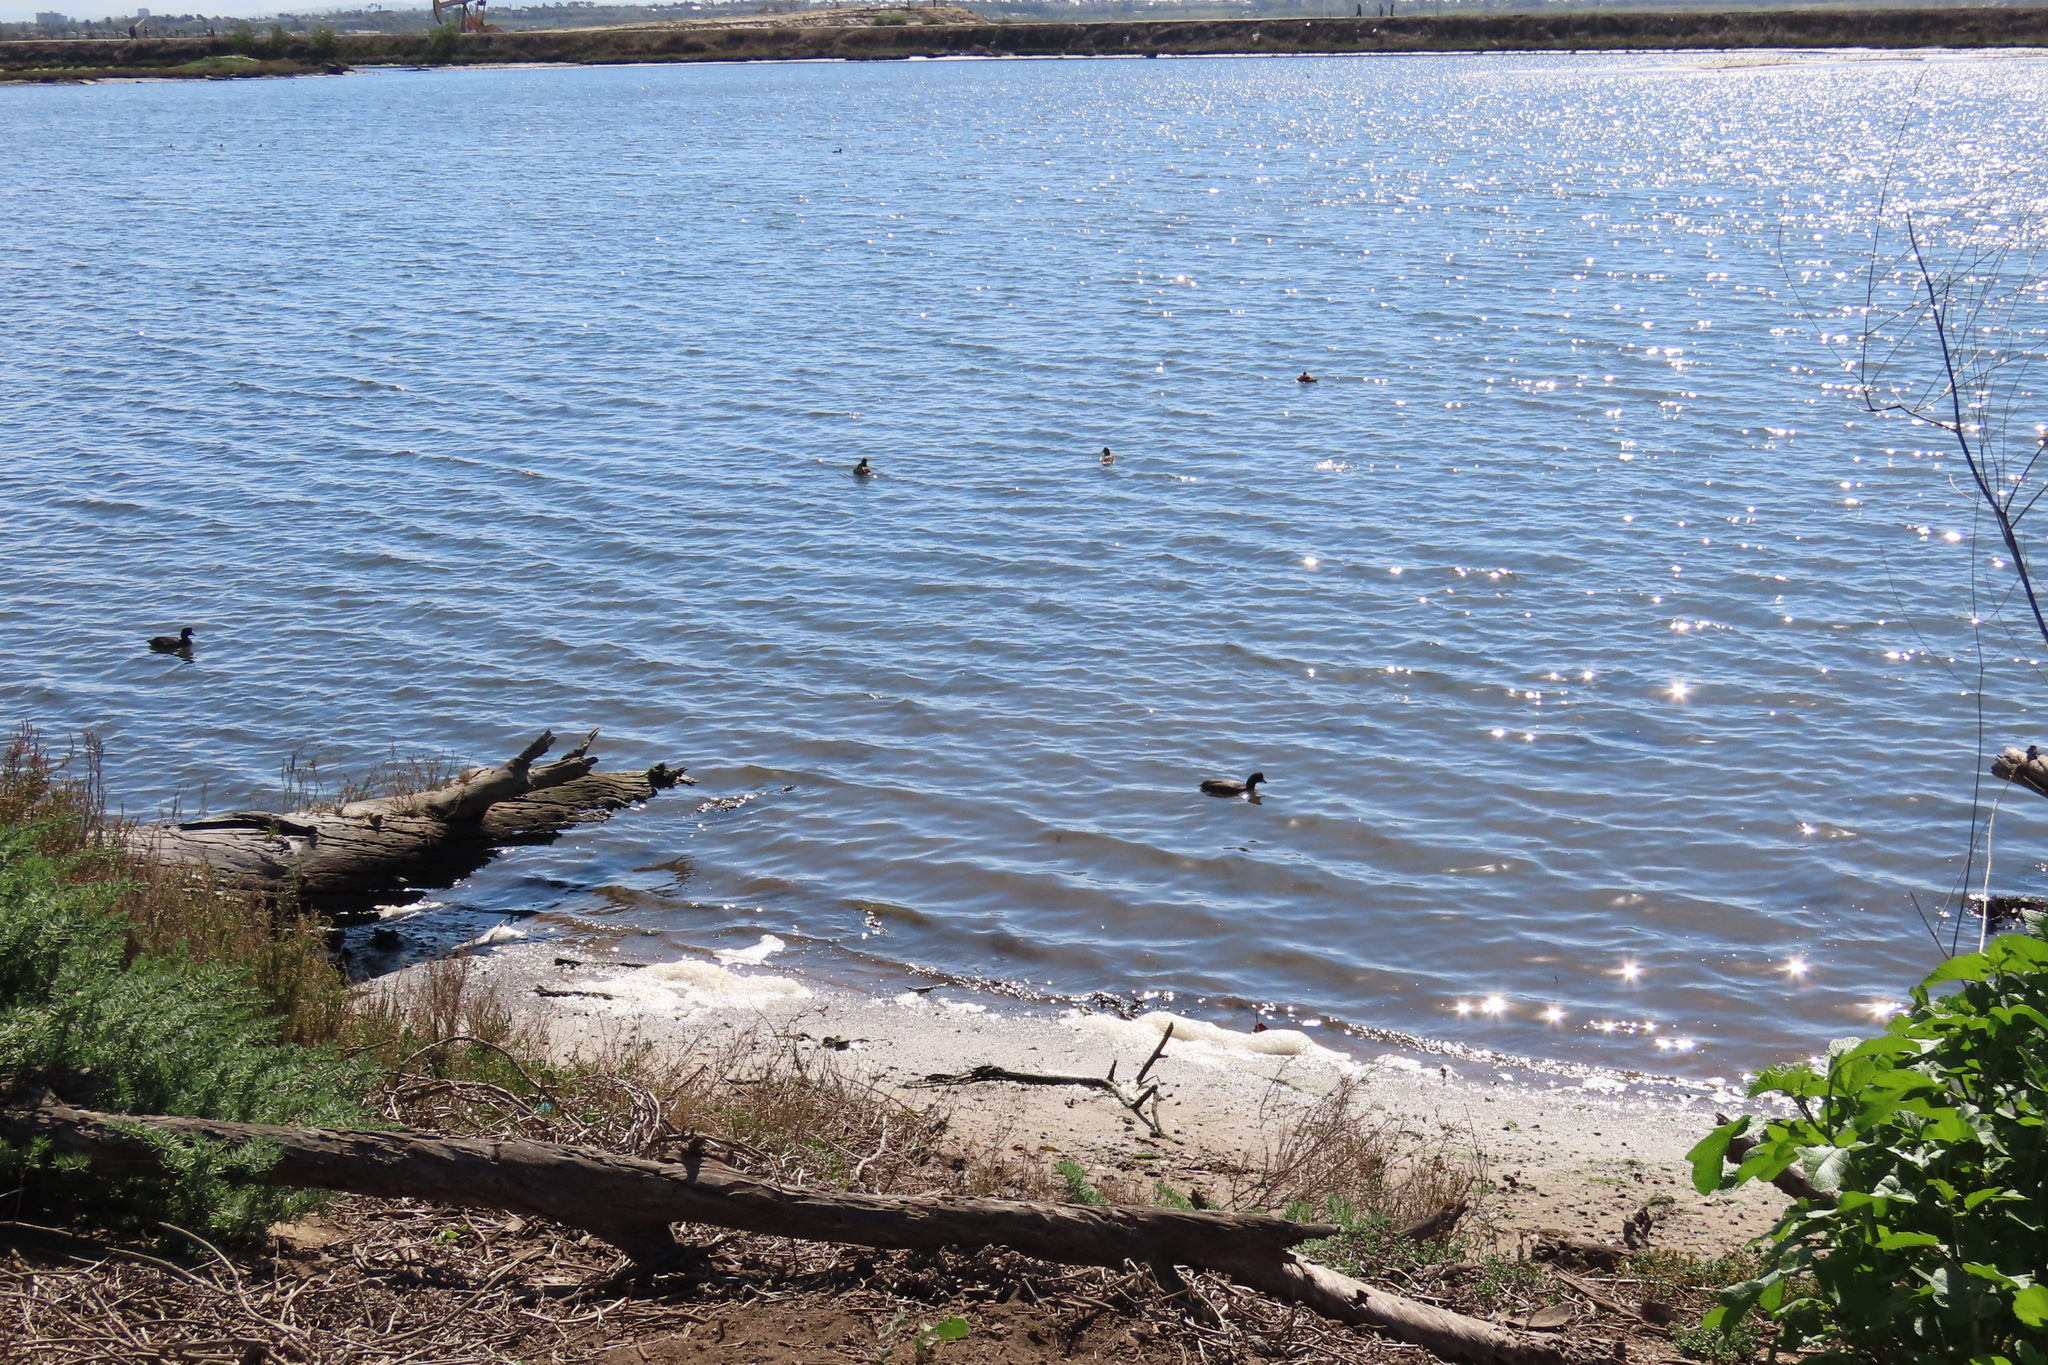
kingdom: Animalia
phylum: Chordata
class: Aves
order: Gruiformes
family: Rallidae
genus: Fulica
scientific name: Fulica americana
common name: American coot
